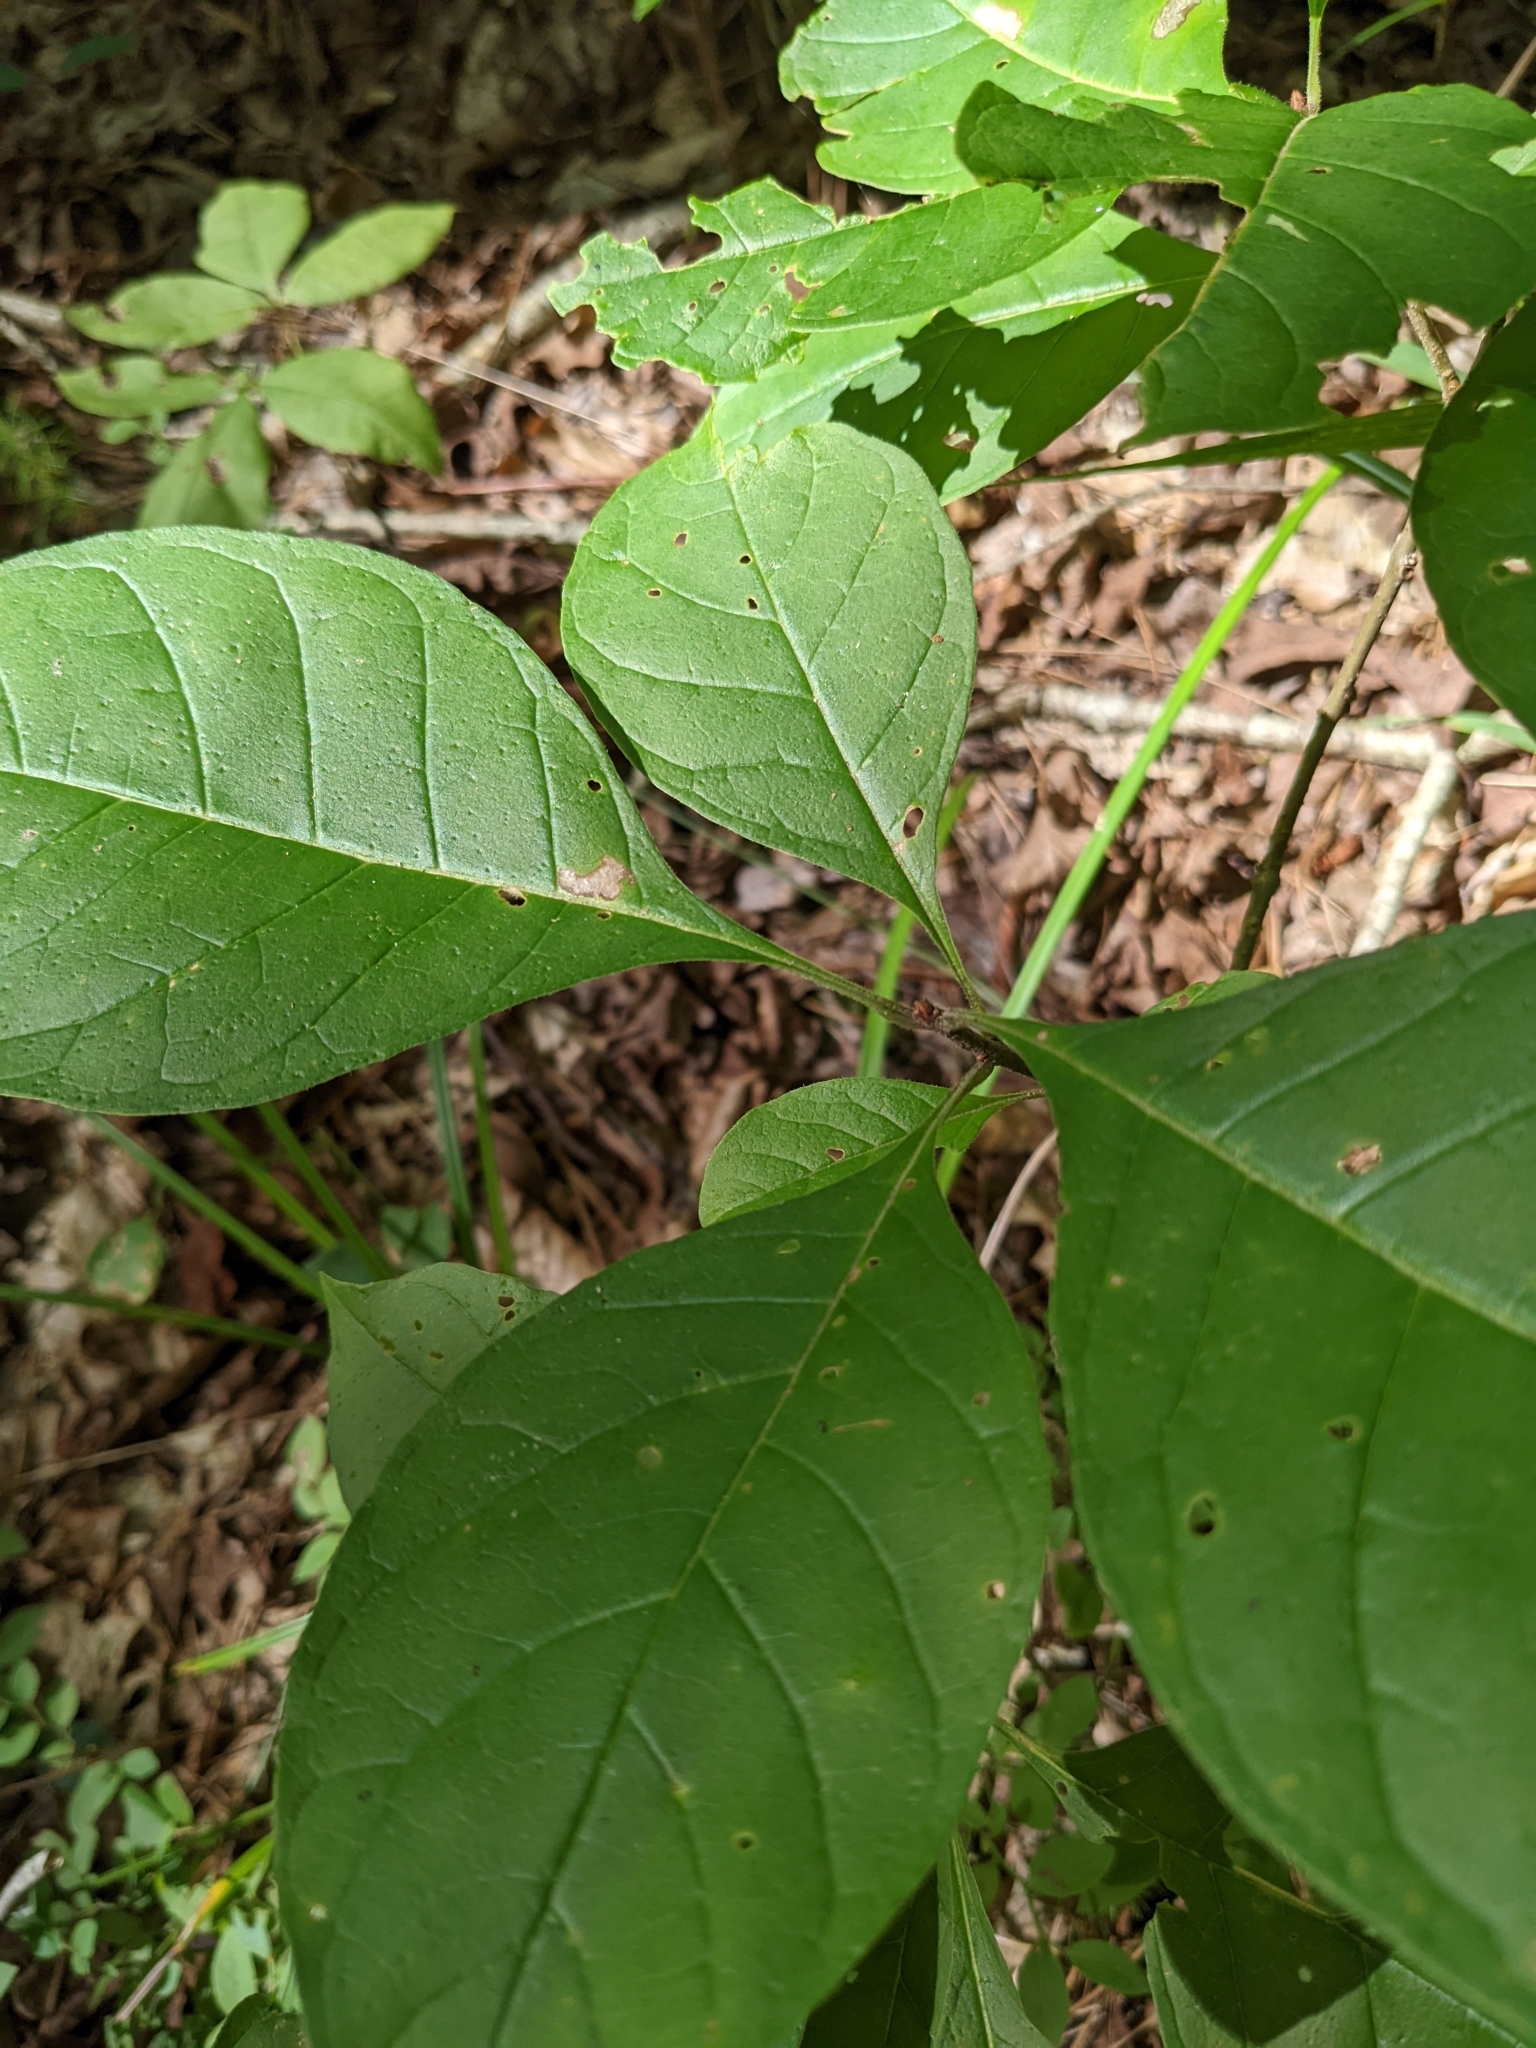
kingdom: Plantae
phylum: Tracheophyta
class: Magnoliopsida
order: Lamiales
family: Oleaceae
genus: Chionanthus
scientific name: Chionanthus virginicus
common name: American fringetree
